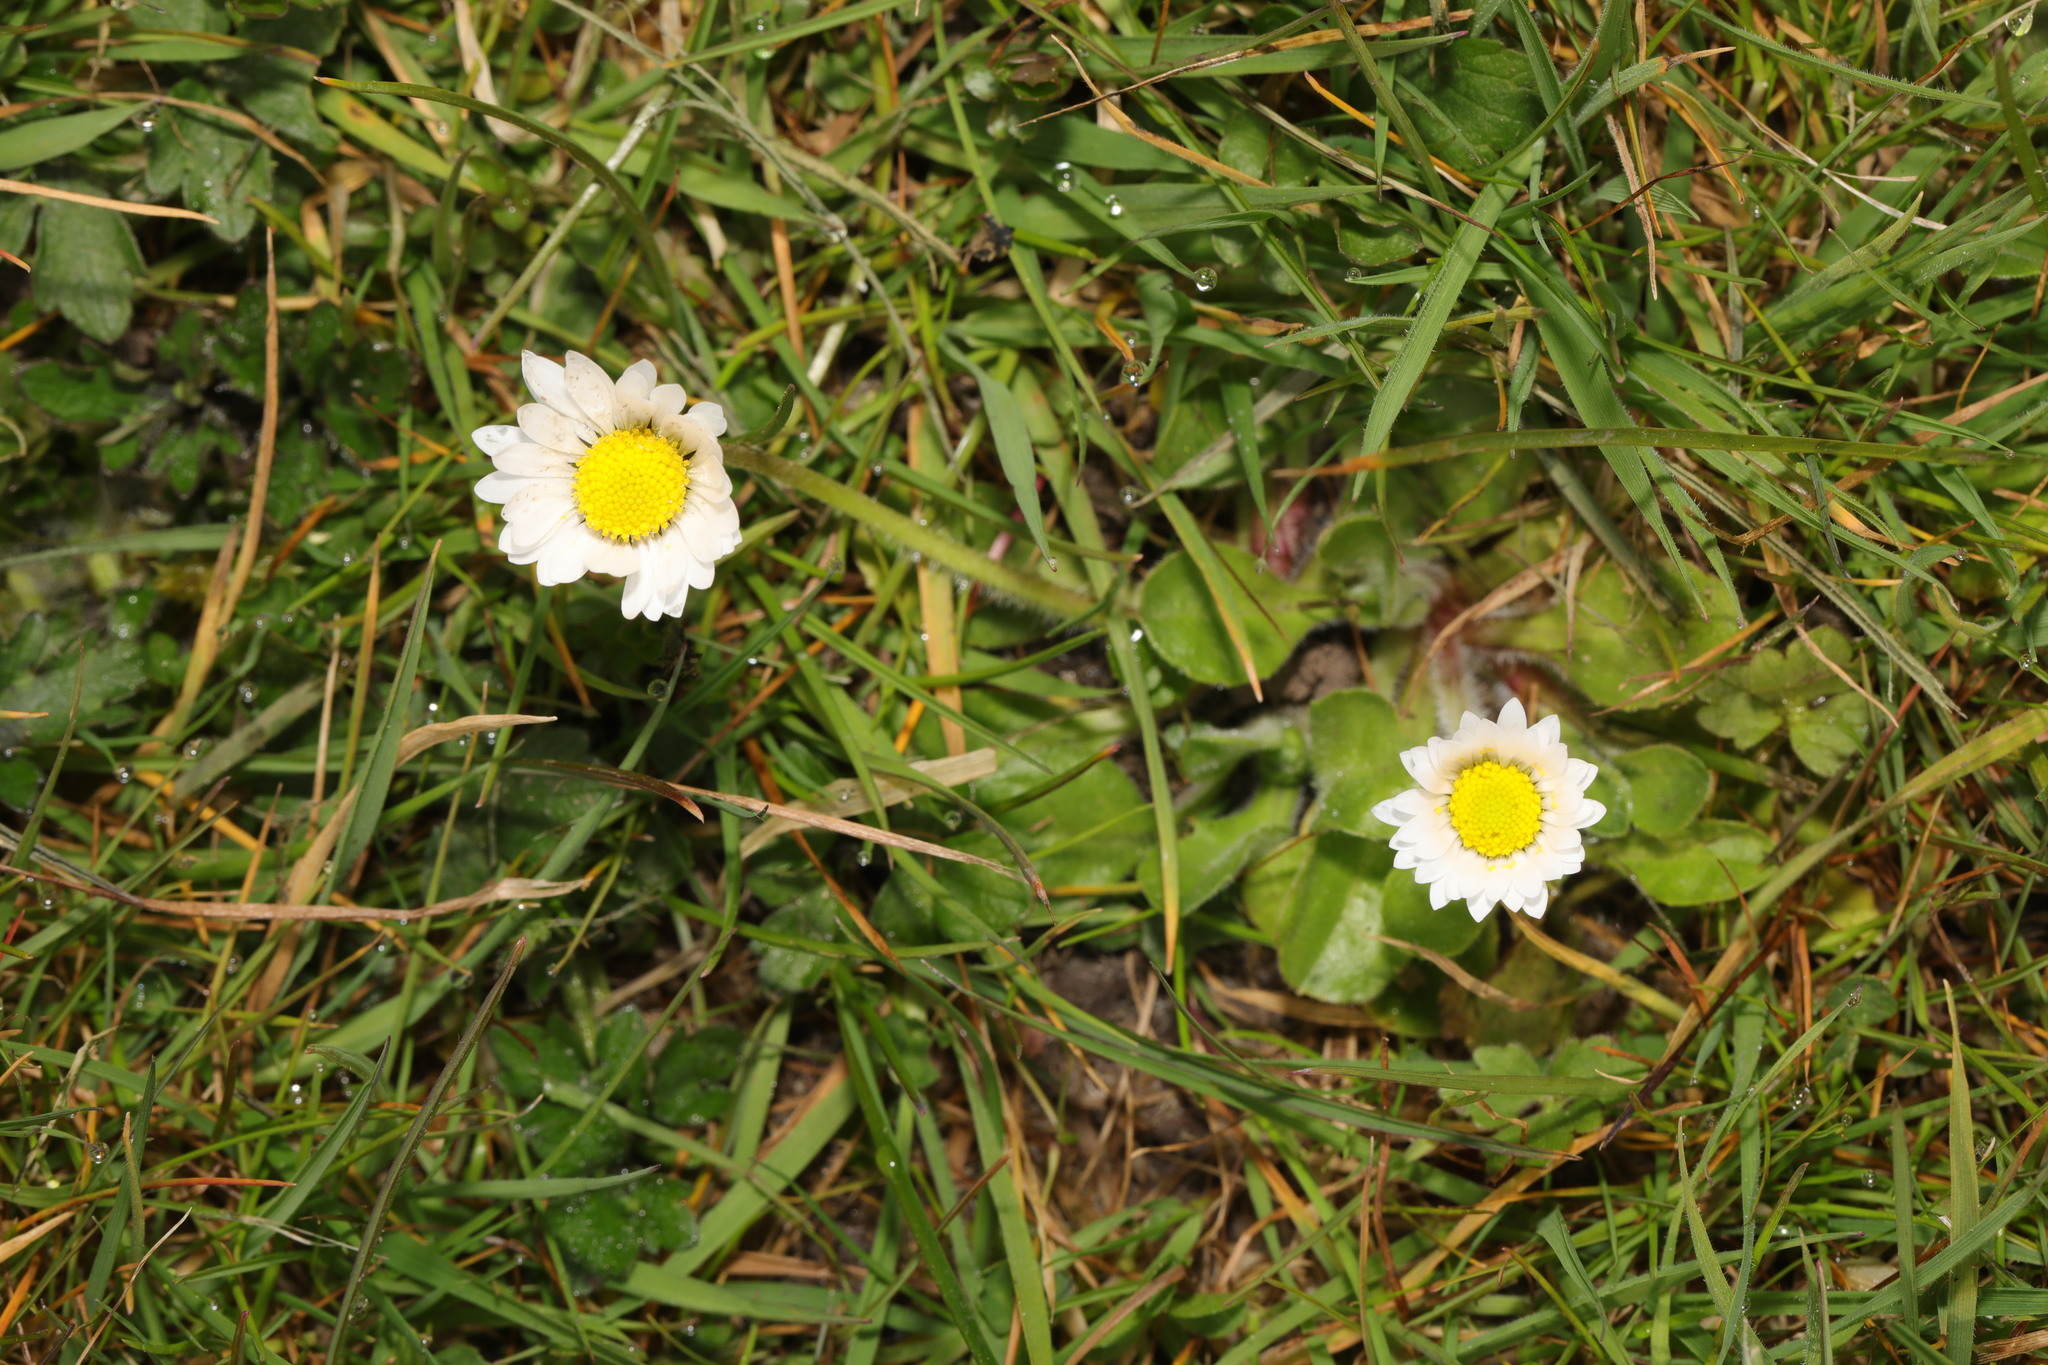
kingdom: Plantae
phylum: Tracheophyta
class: Magnoliopsida
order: Asterales
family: Asteraceae
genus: Bellis
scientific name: Bellis perennis
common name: Lawndaisy
